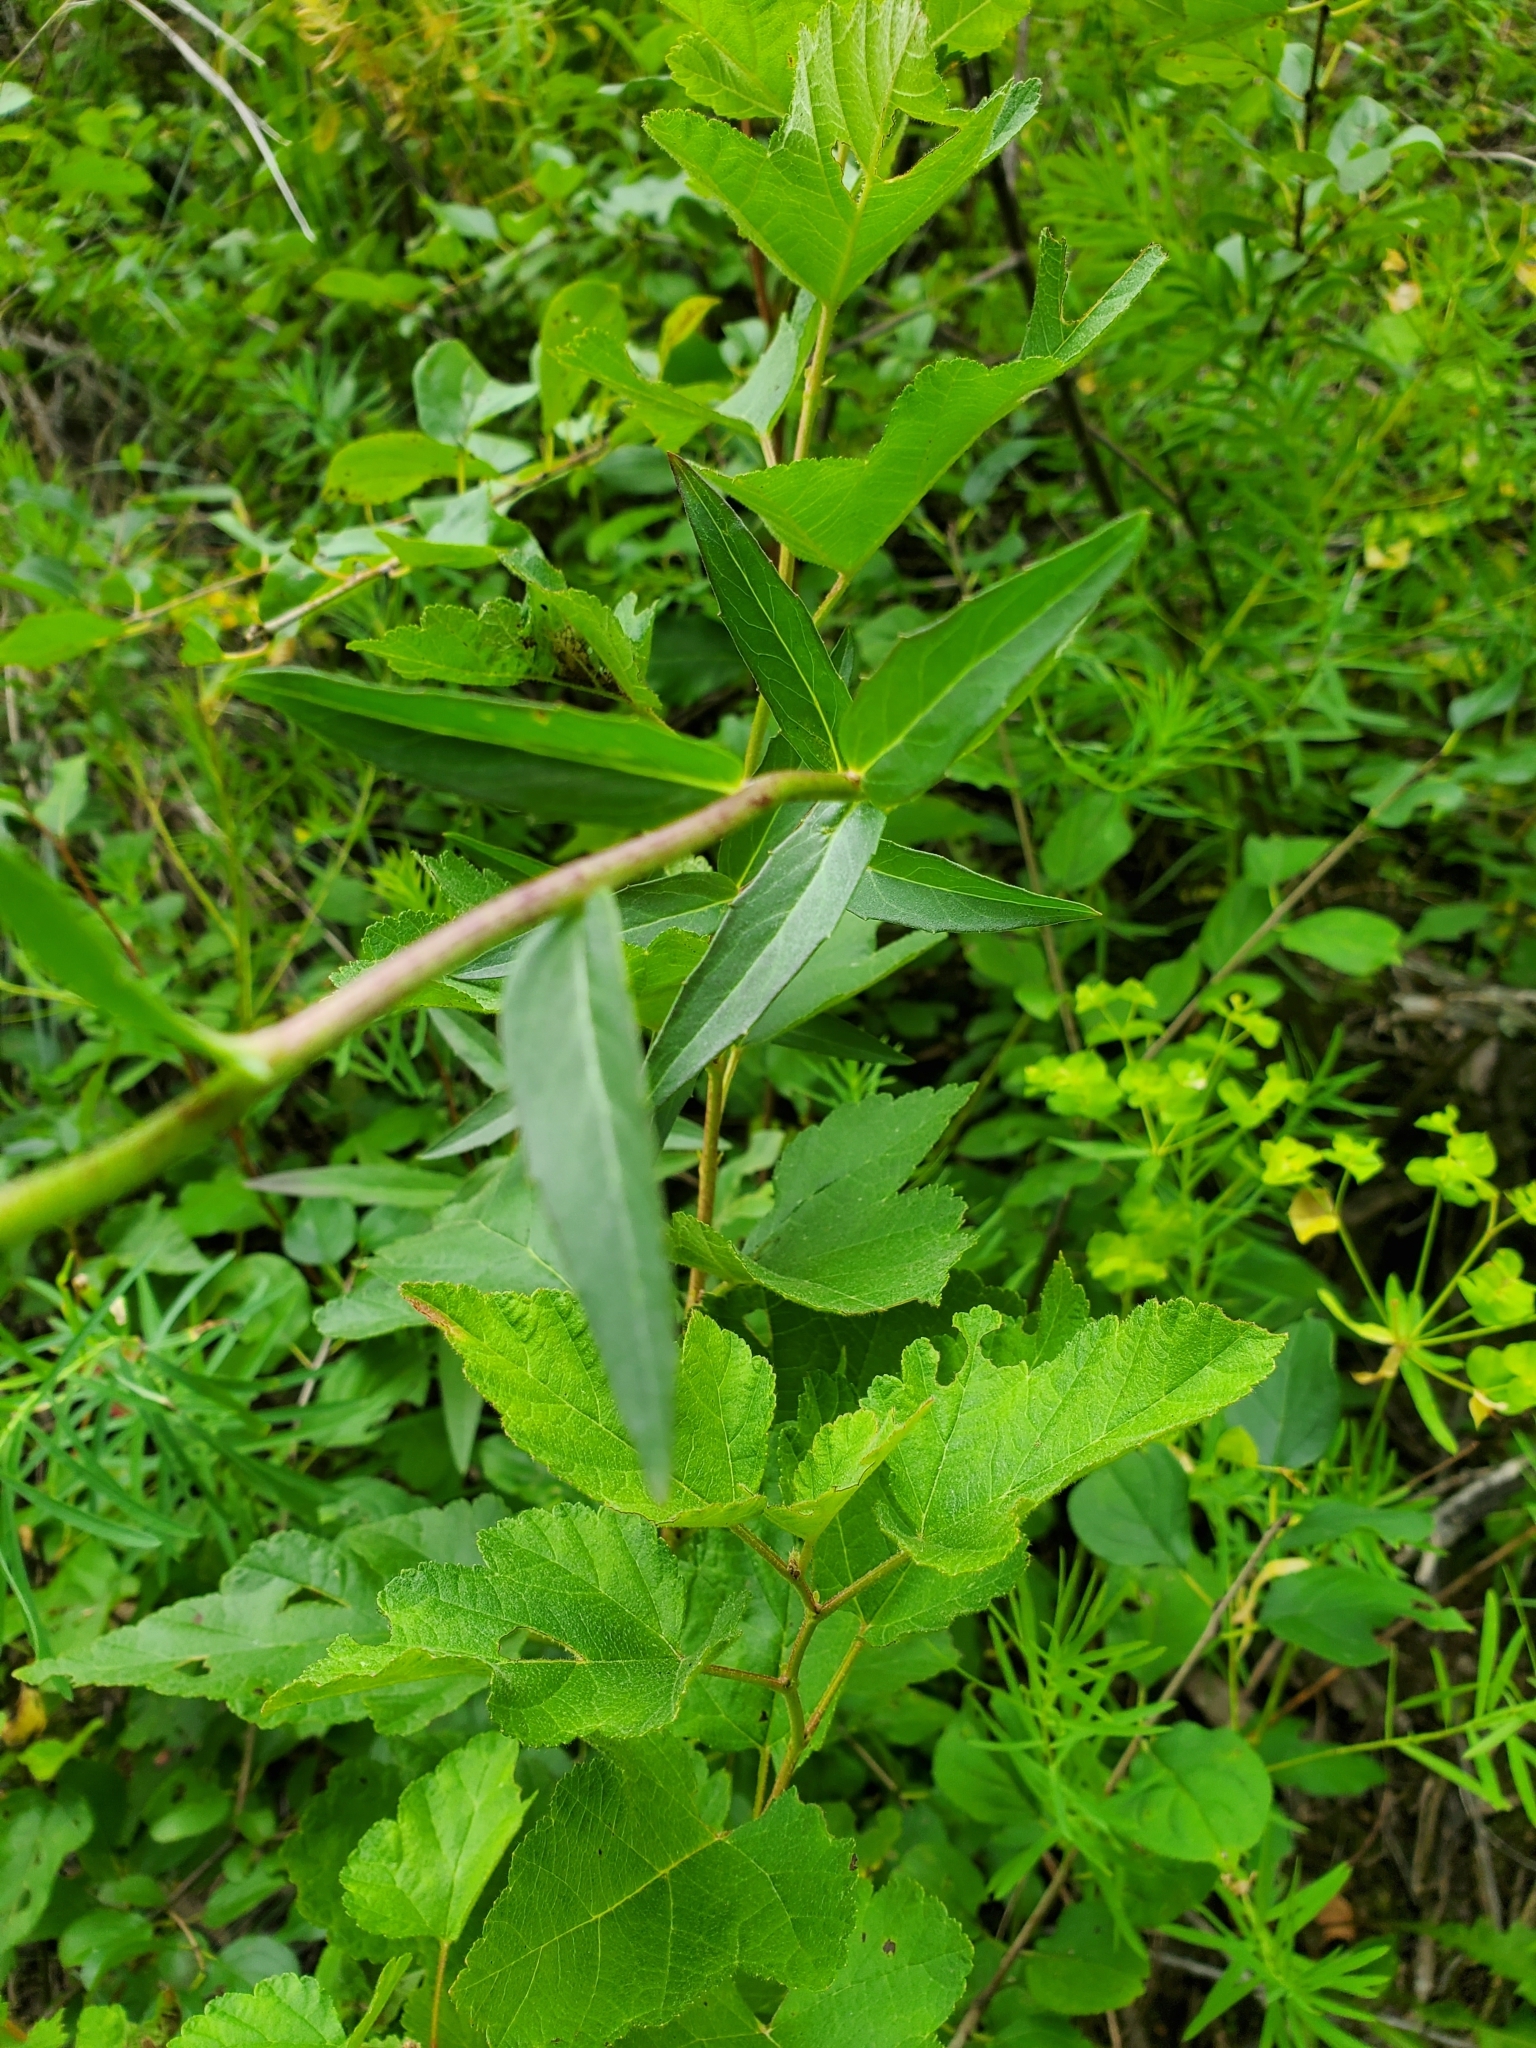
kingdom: Plantae
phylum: Tracheophyta
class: Magnoliopsida
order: Asterales
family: Asteraceae
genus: Hieracium
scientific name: Hieracium umbellatum
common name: Northern hawkweed
